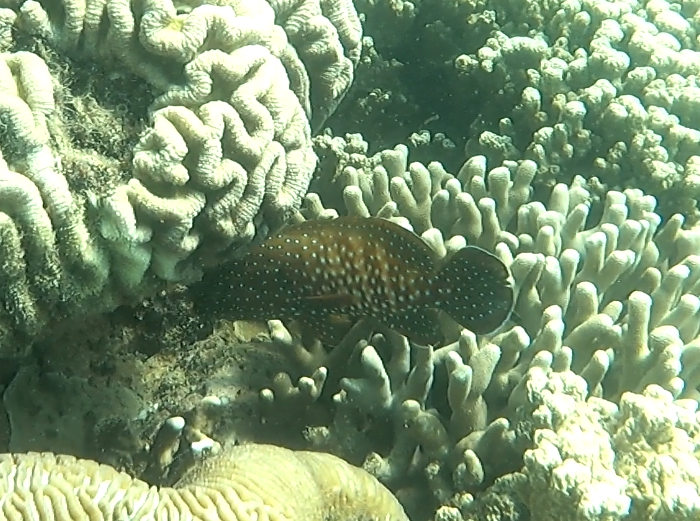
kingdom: Animalia
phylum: Chordata
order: Perciformes
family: Serranidae
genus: Cephalopholis
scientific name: Cephalopholis cyanostigma
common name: Bluespotted hind
